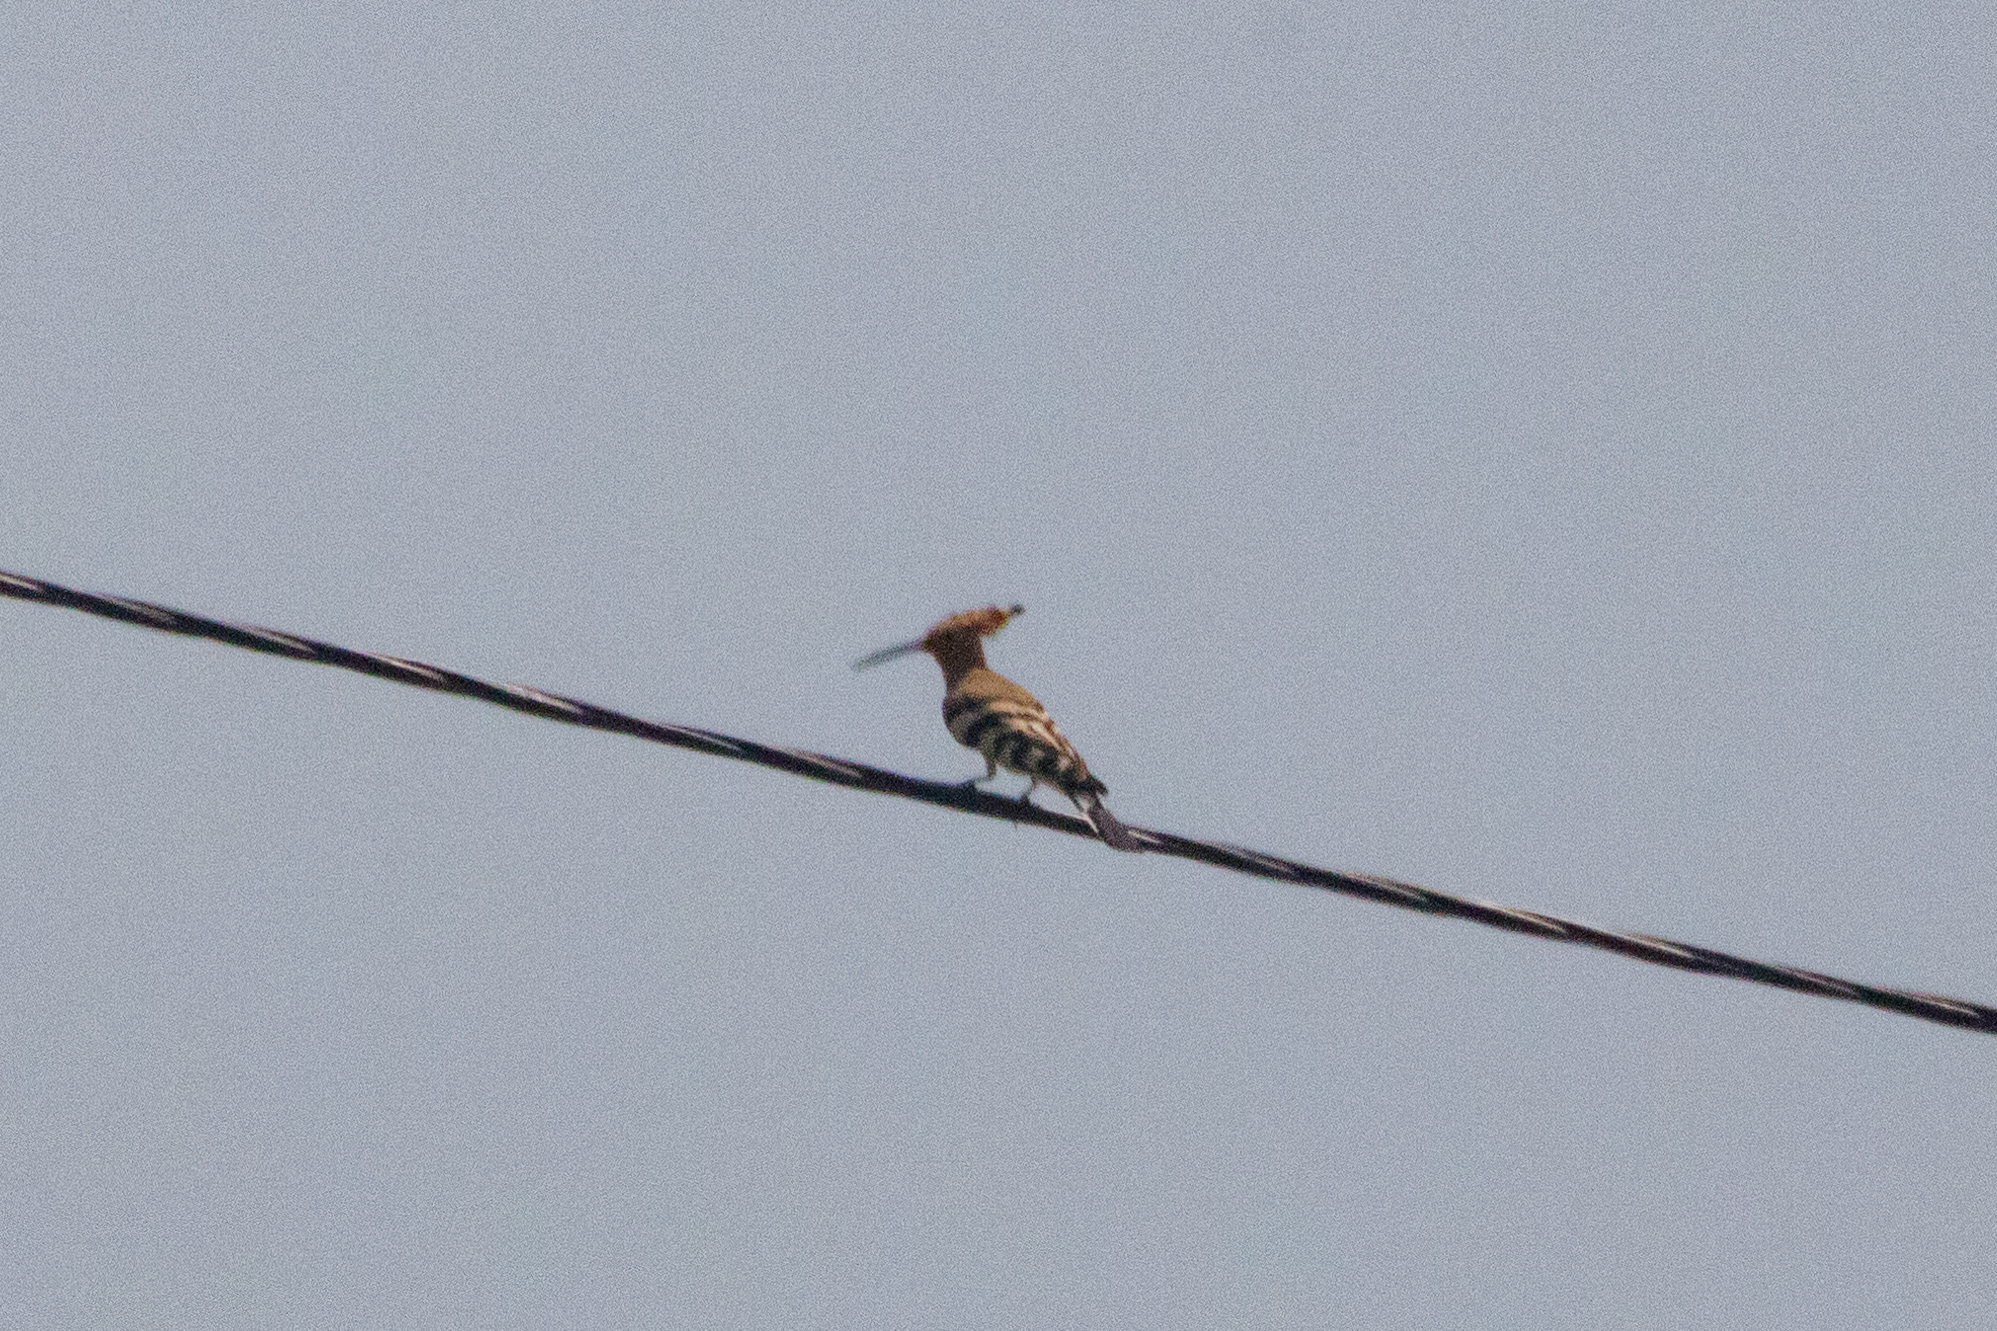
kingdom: Animalia
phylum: Chordata
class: Aves
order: Bucerotiformes
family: Upupidae
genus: Upupa
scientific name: Upupa epops
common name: Eurasian hoopoe
